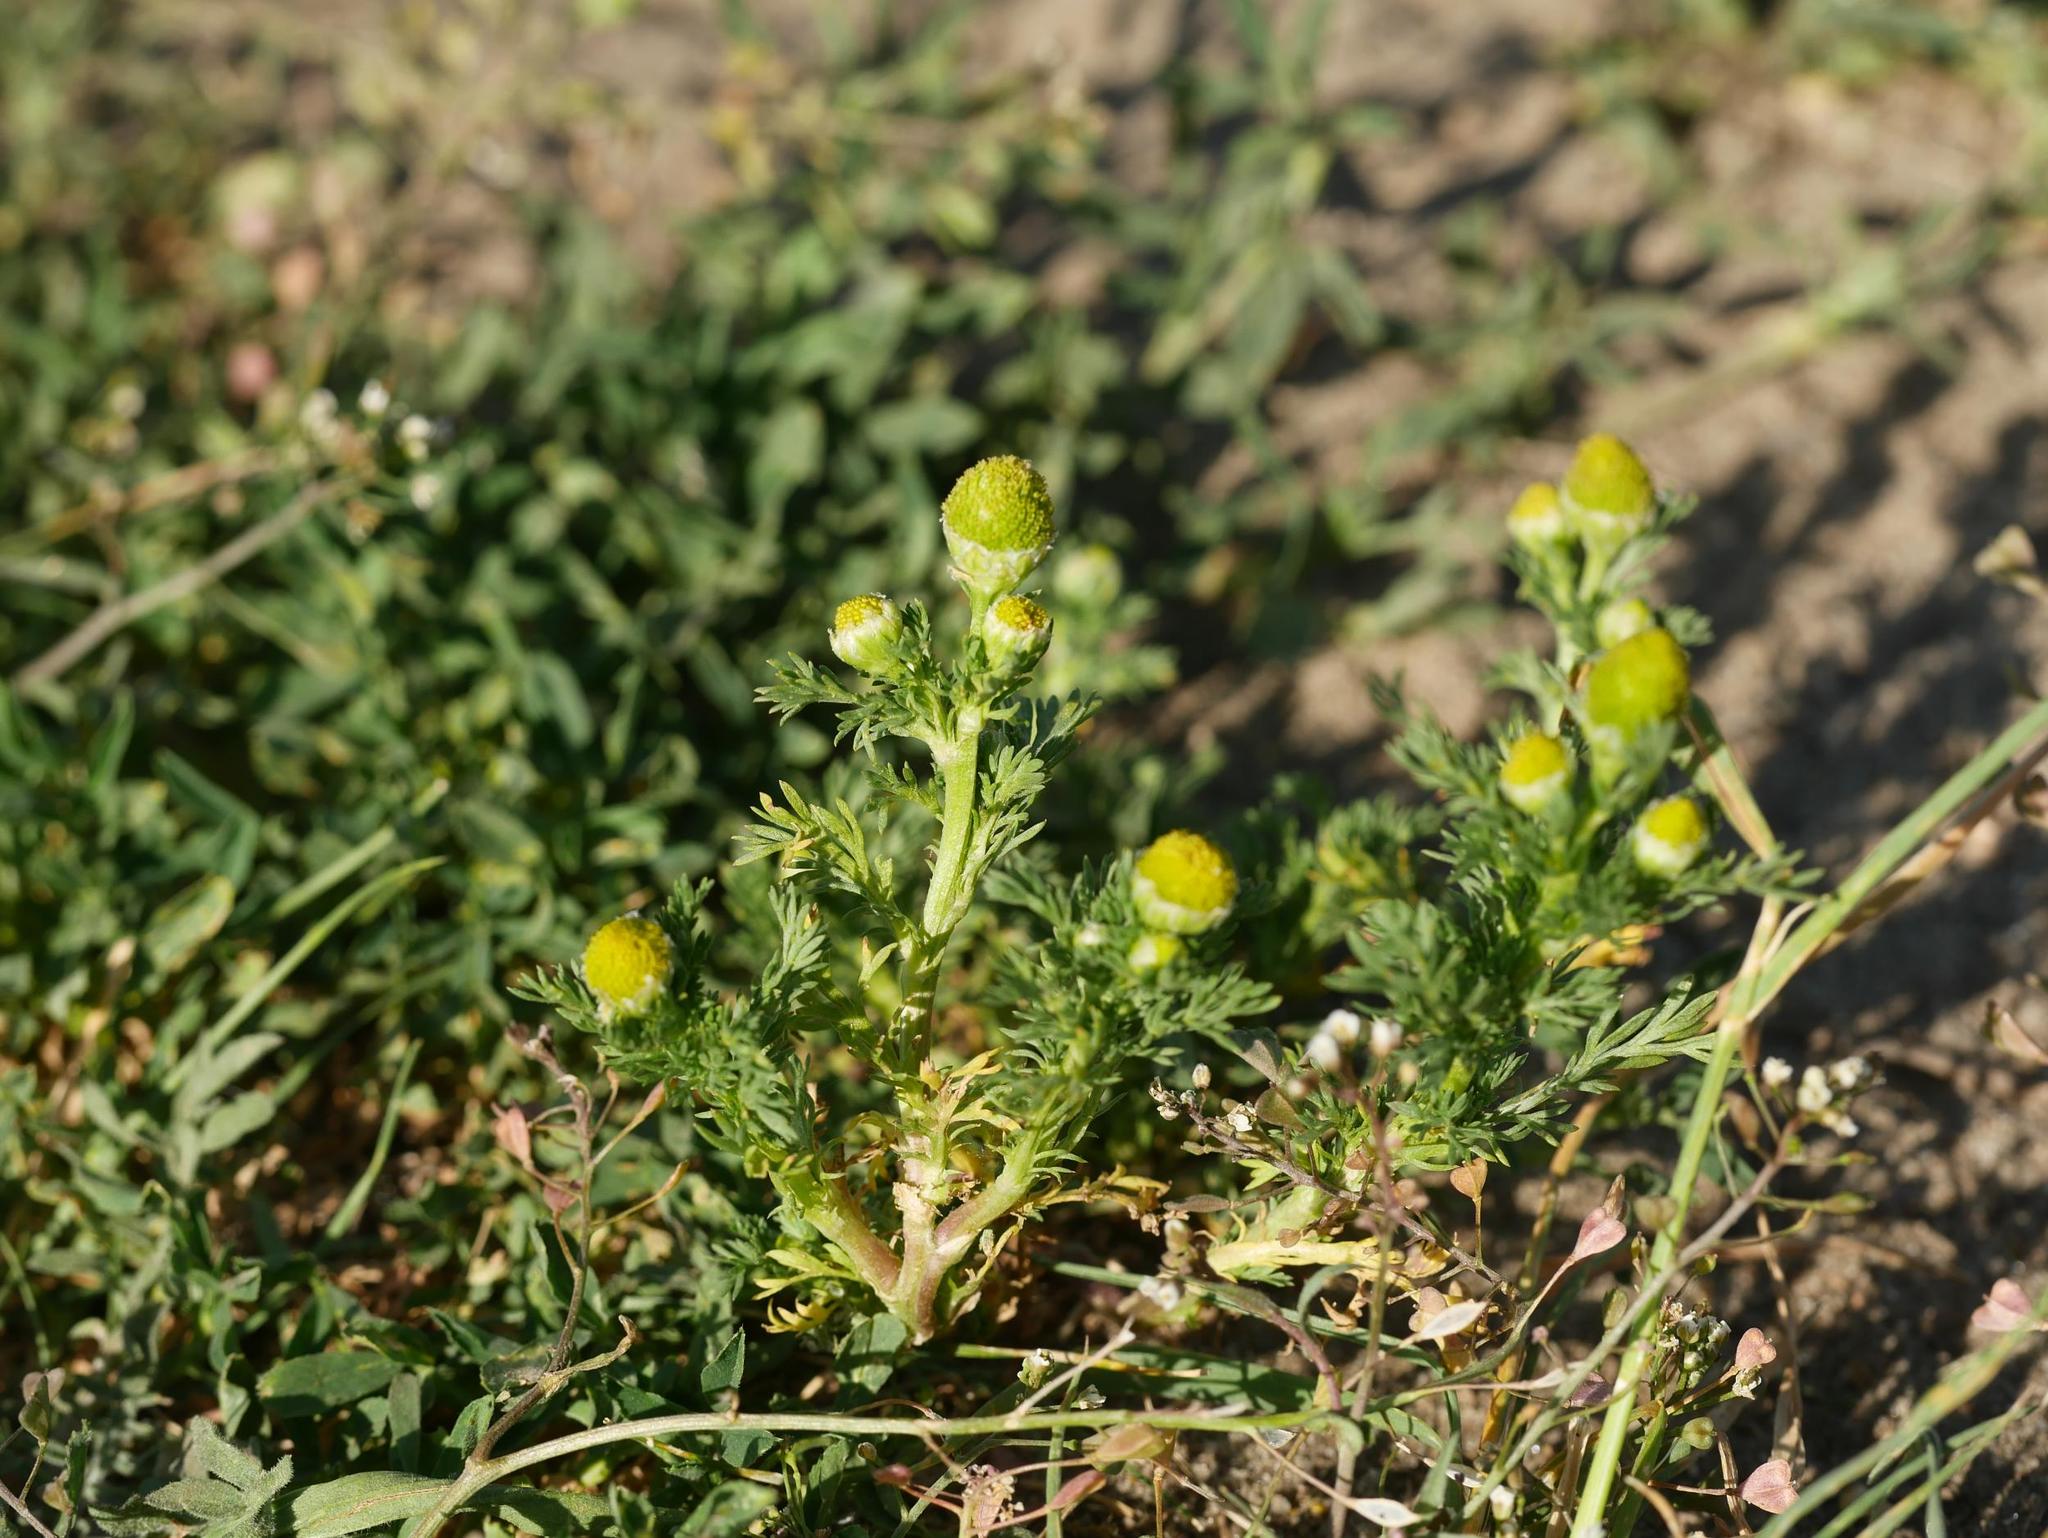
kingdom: Plantae
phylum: Tracheophyta
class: Magnoliopsida
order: Asterales
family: Asteraceae
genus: Matricaria
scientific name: Matricaria discoidea
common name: Disc mayweed
